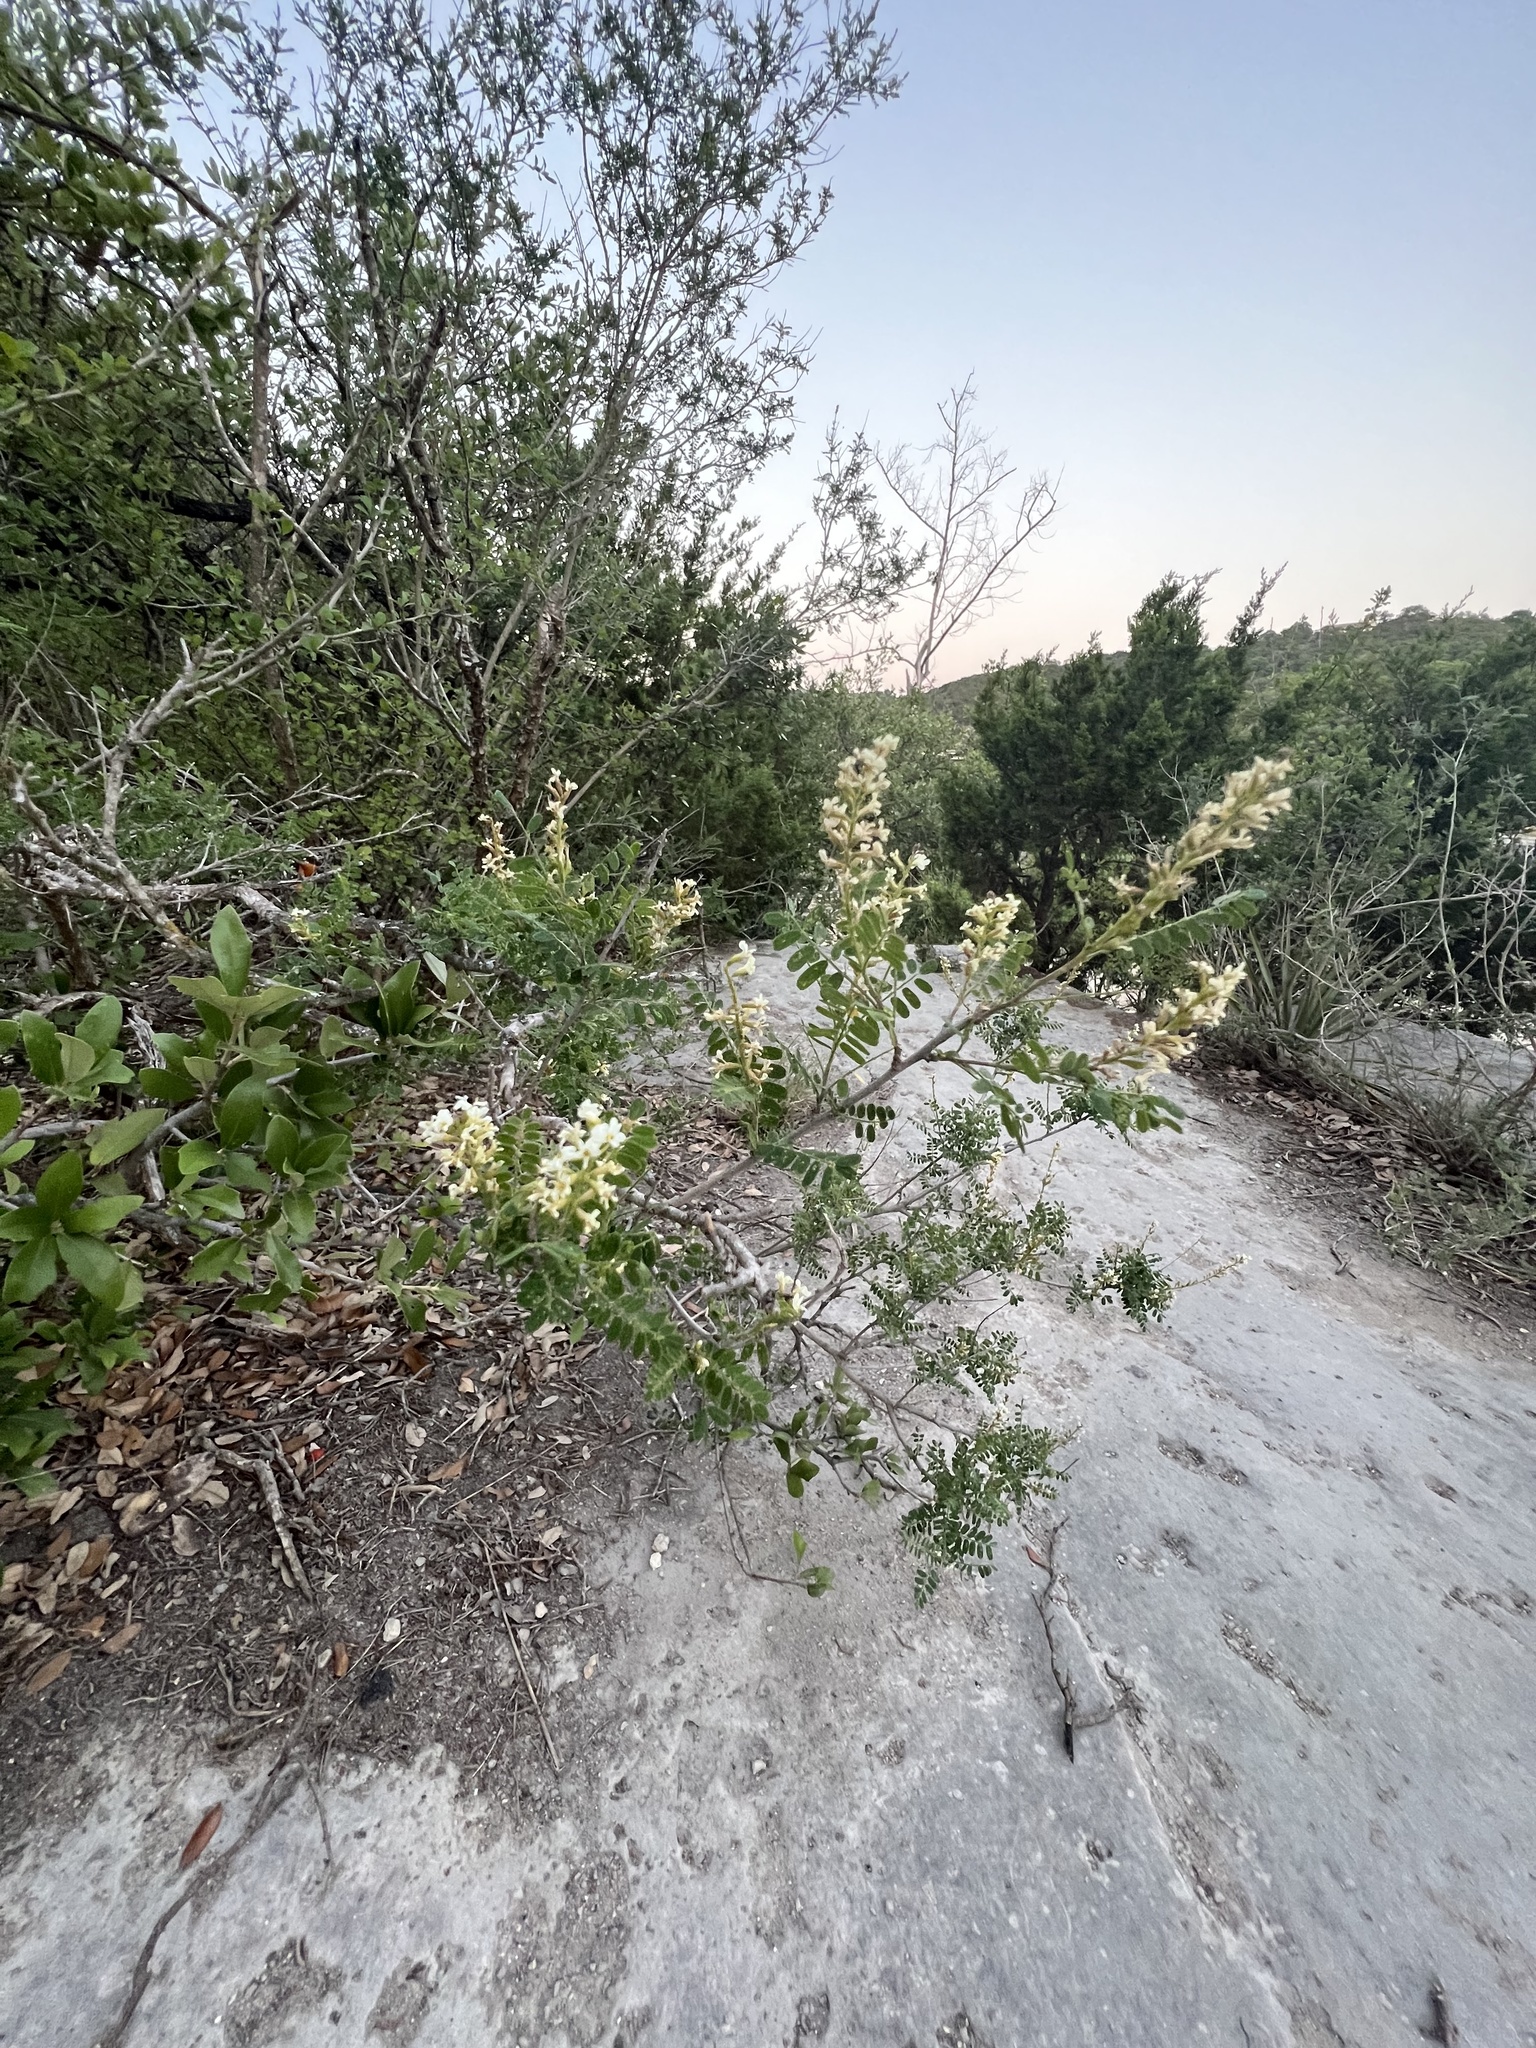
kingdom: Plantae
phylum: Tracheophyta
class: Magnoliopsida
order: Fabales
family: Fabaceae
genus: Eysenhardtia
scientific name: Eysenhardtia texana
